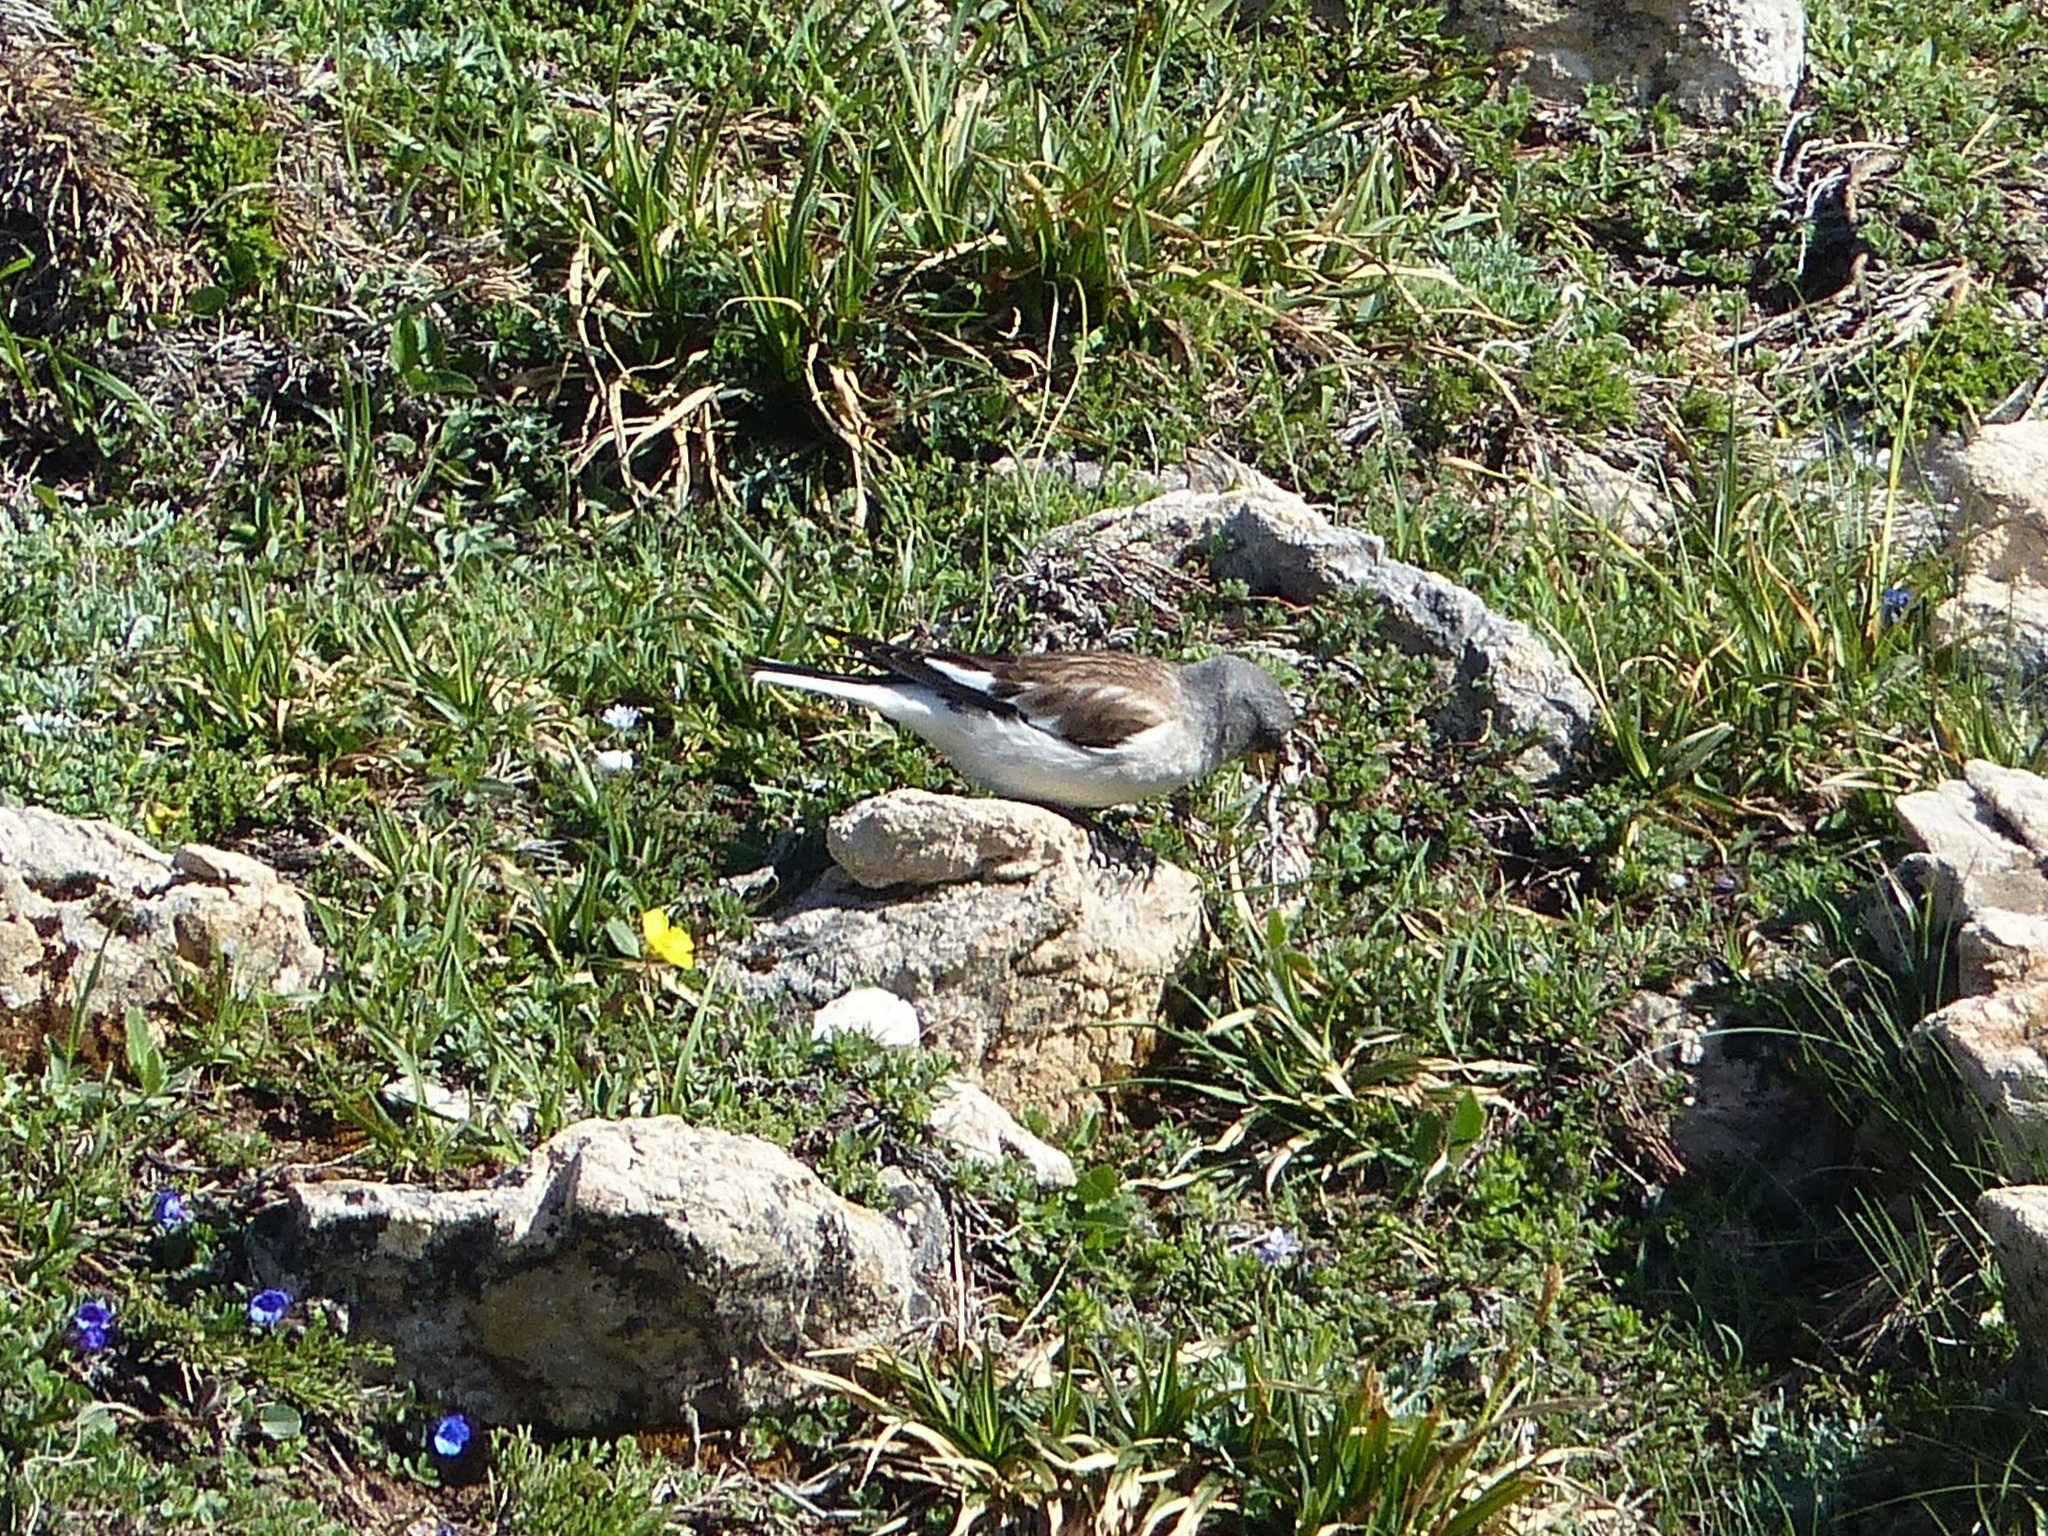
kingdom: Animalia
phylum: Chordata
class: Aves
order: Passeriformes
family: Passeridae
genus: Montifringilla
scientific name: Montifringilla nivalis
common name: White-winged snowfinch
